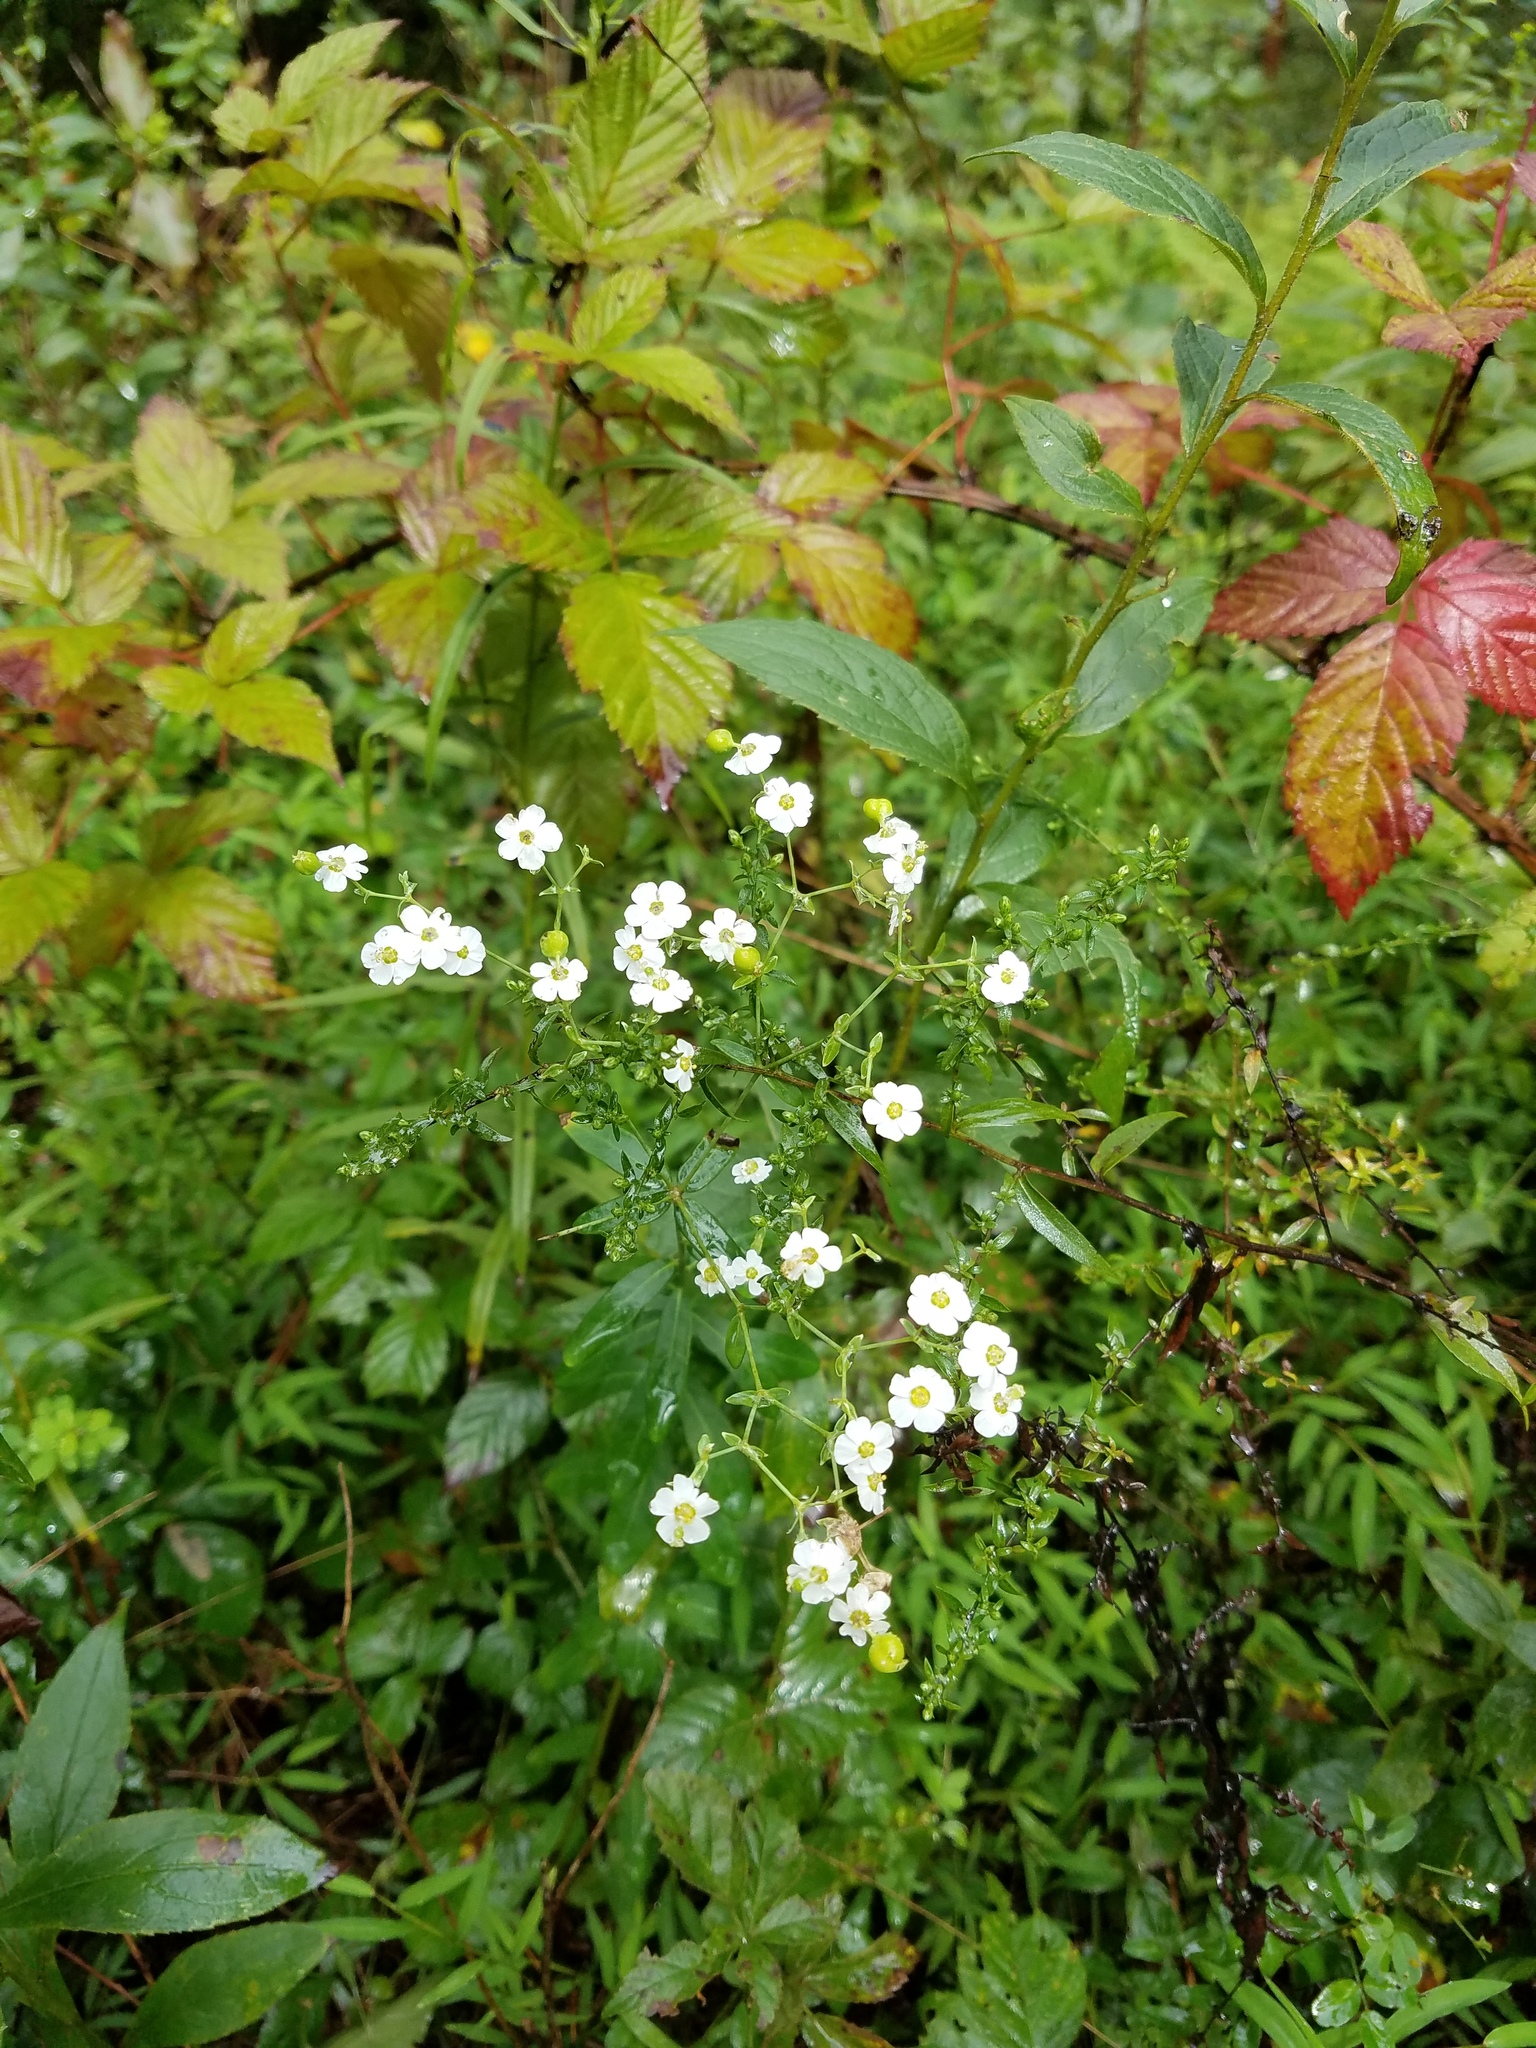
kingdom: Plantae
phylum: Tracheophyta
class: Magnoliopsida
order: Malpighiales
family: Euphorbiaceae
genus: Euphorbia
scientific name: Euphorbia corollata
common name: Flowering spurge
